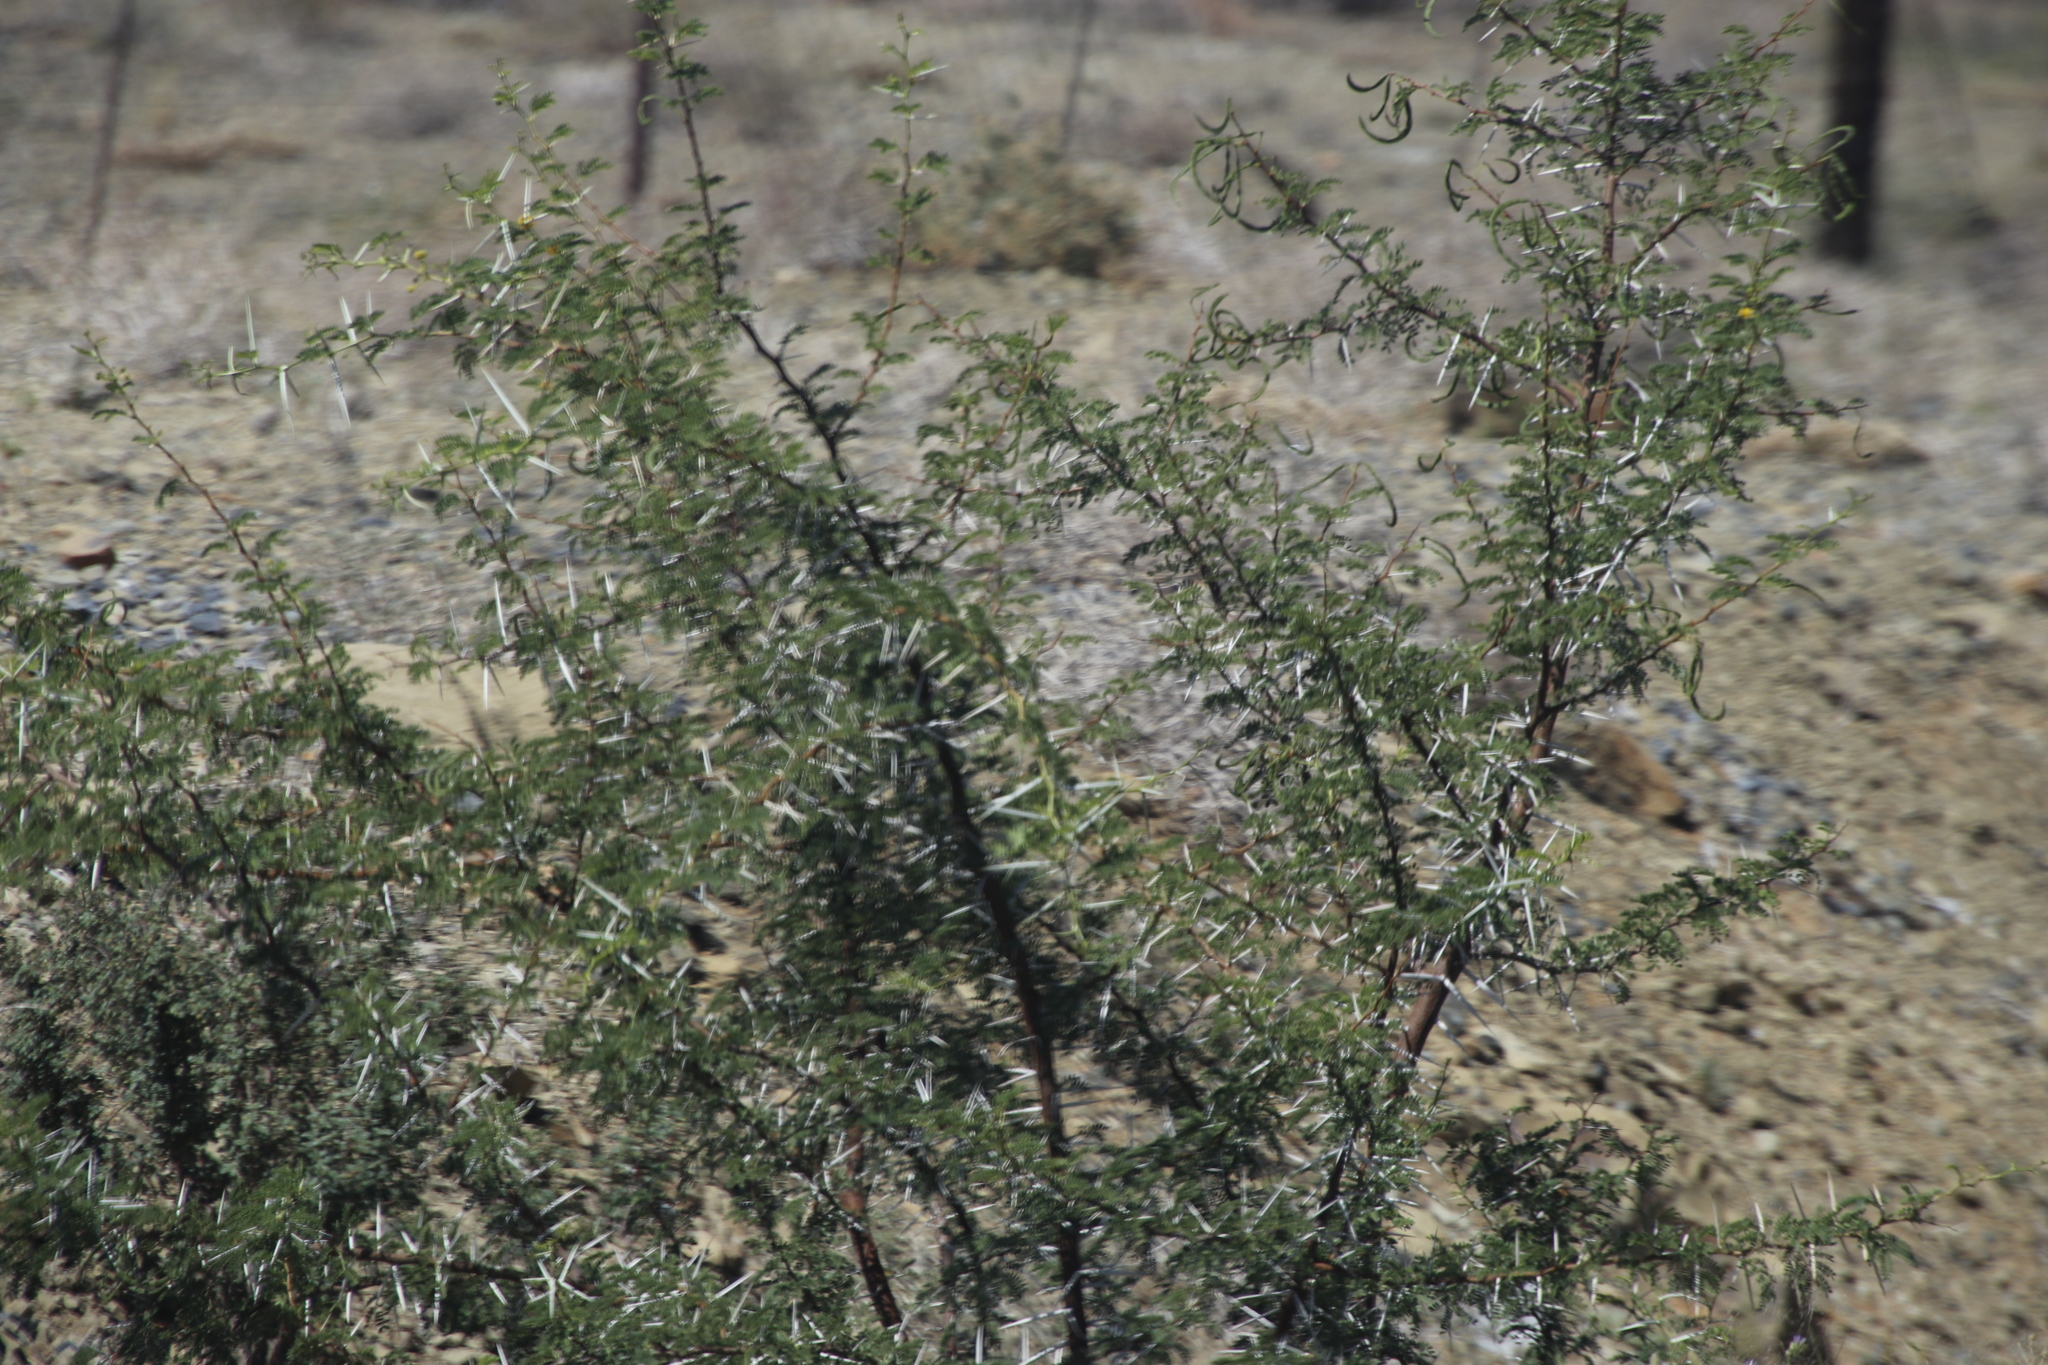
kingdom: Plantae
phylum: Tracheophyta
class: Magnoliopsida
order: Fabales
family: Fabaceae
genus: Vachellia
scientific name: Vachellia karroo
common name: Sweet thorn
